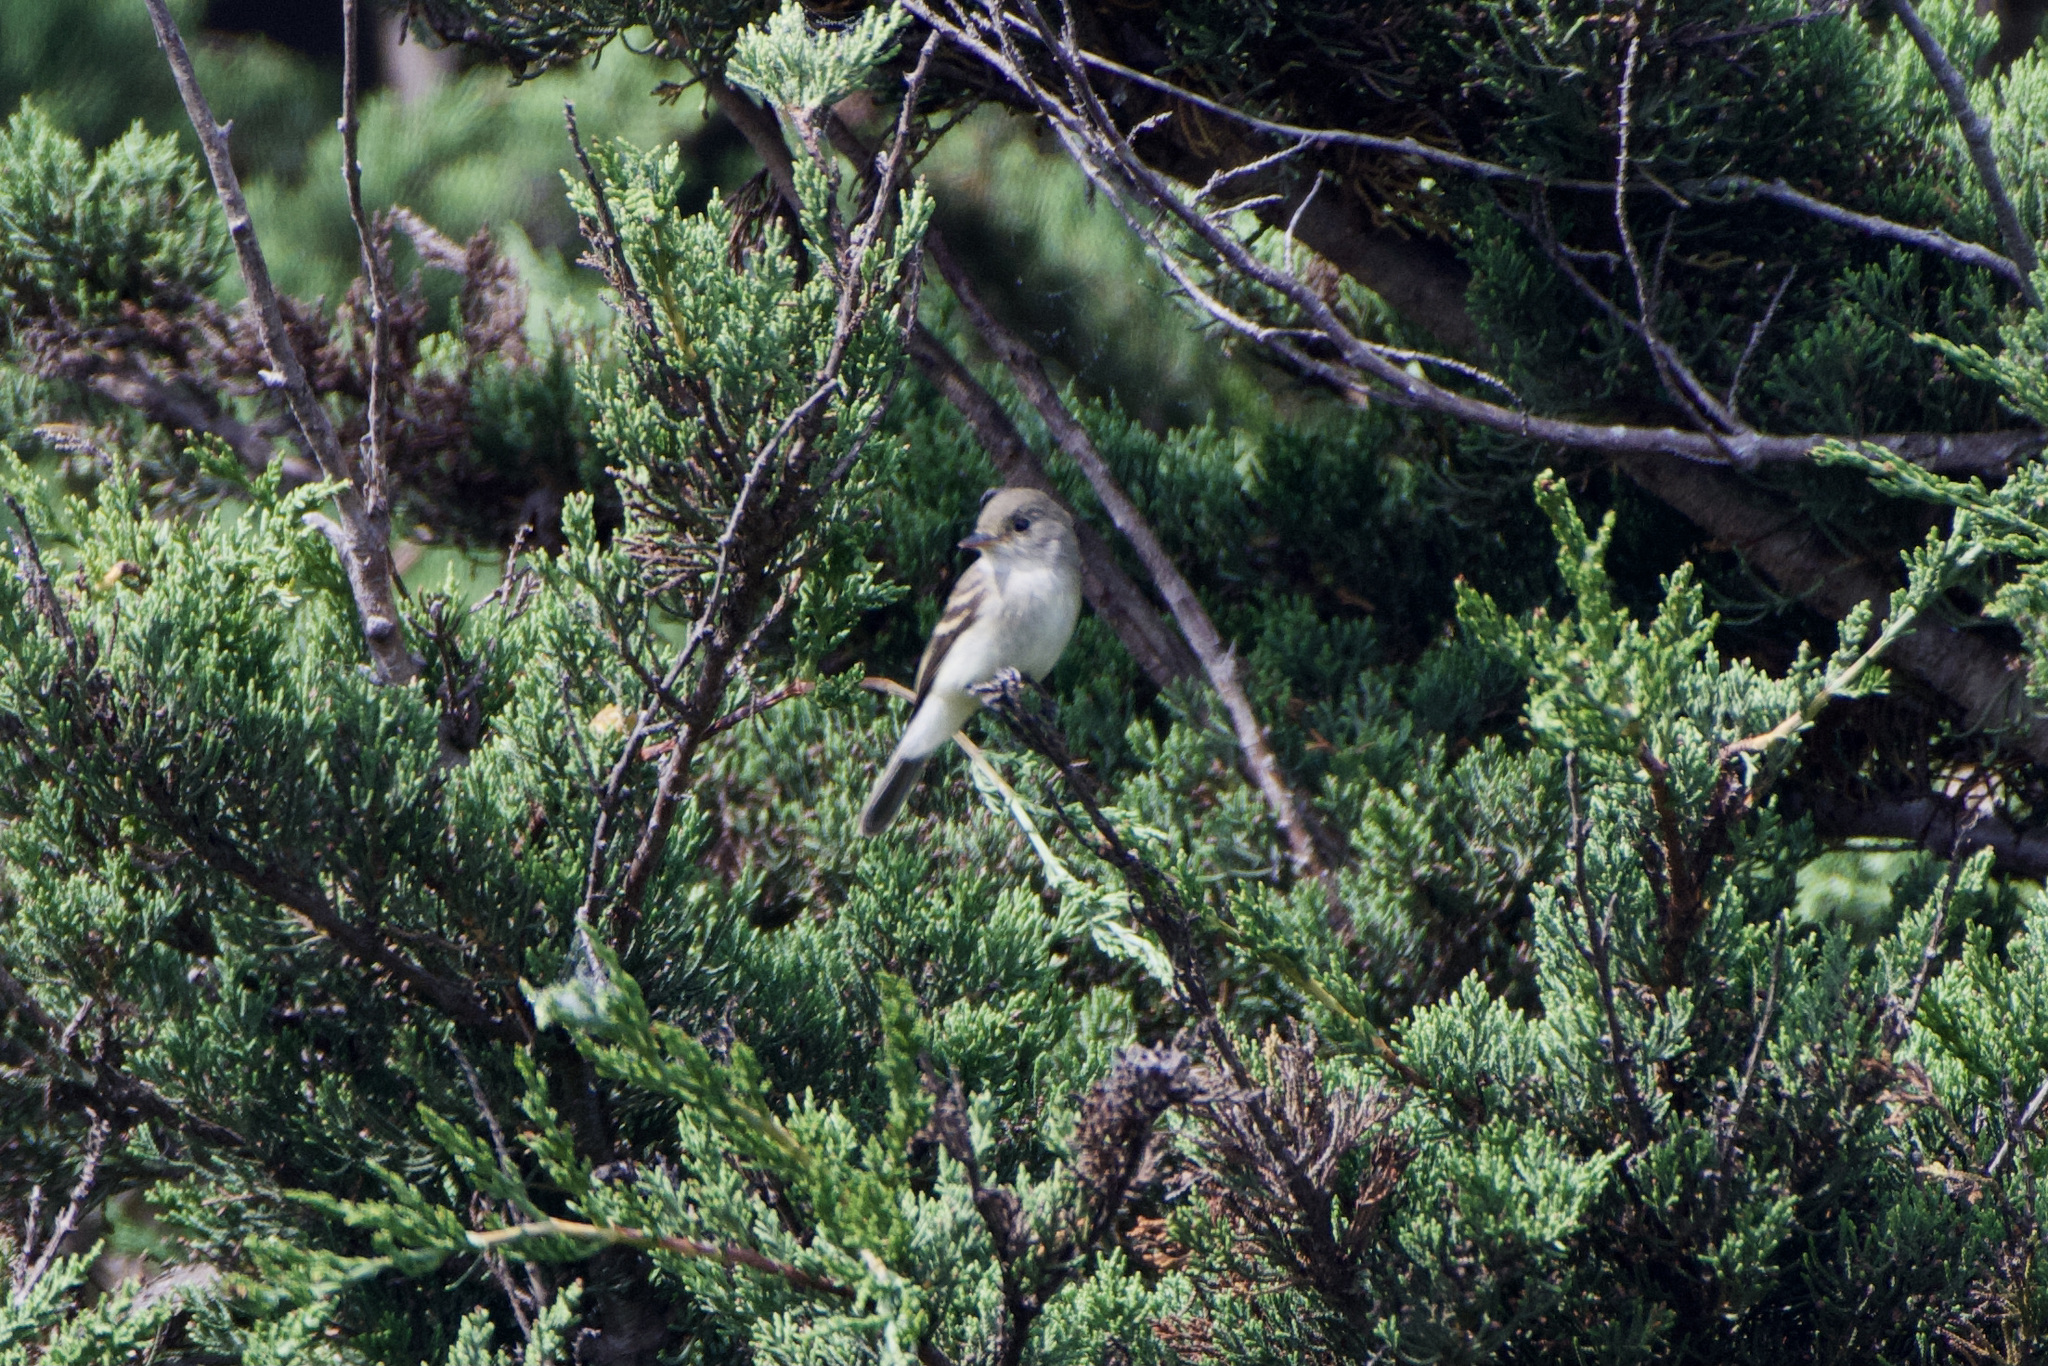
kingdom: Animalia
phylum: Chordata
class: Aves
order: Passeriformes
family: Tyrannidae
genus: Empidonax
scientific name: Empidonax traillii
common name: Willow flycatcher
